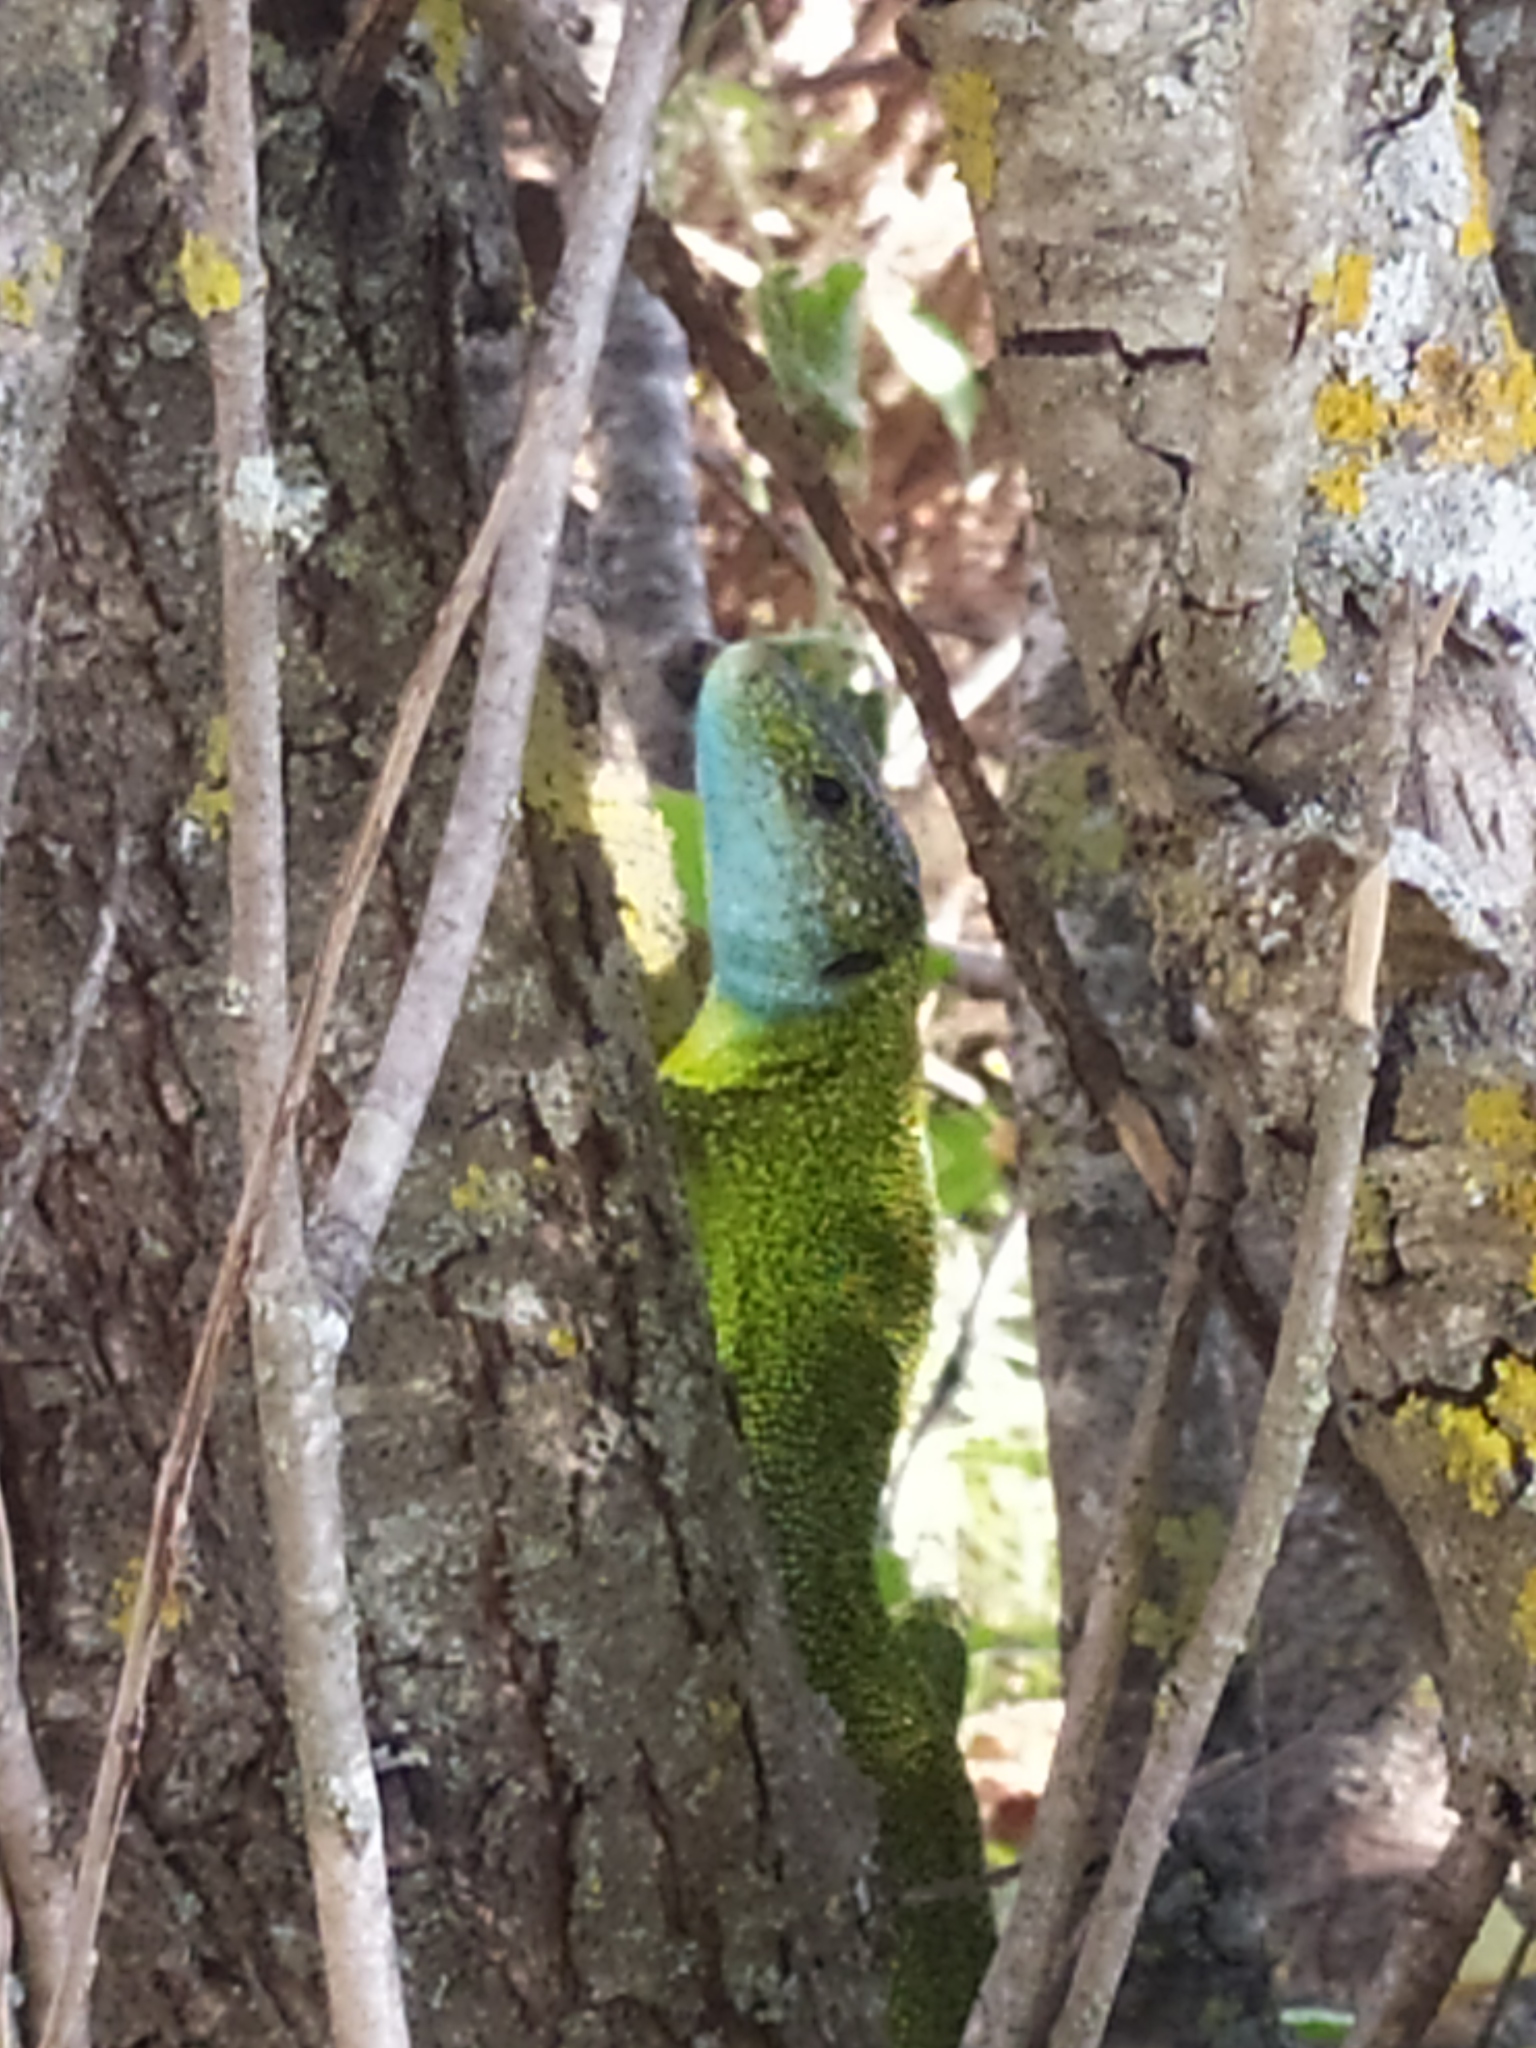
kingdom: Animalia
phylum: Chordata
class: Squamata
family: Lacertidae
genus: Lacerta
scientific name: Lacerta viridis
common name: European green lizard
